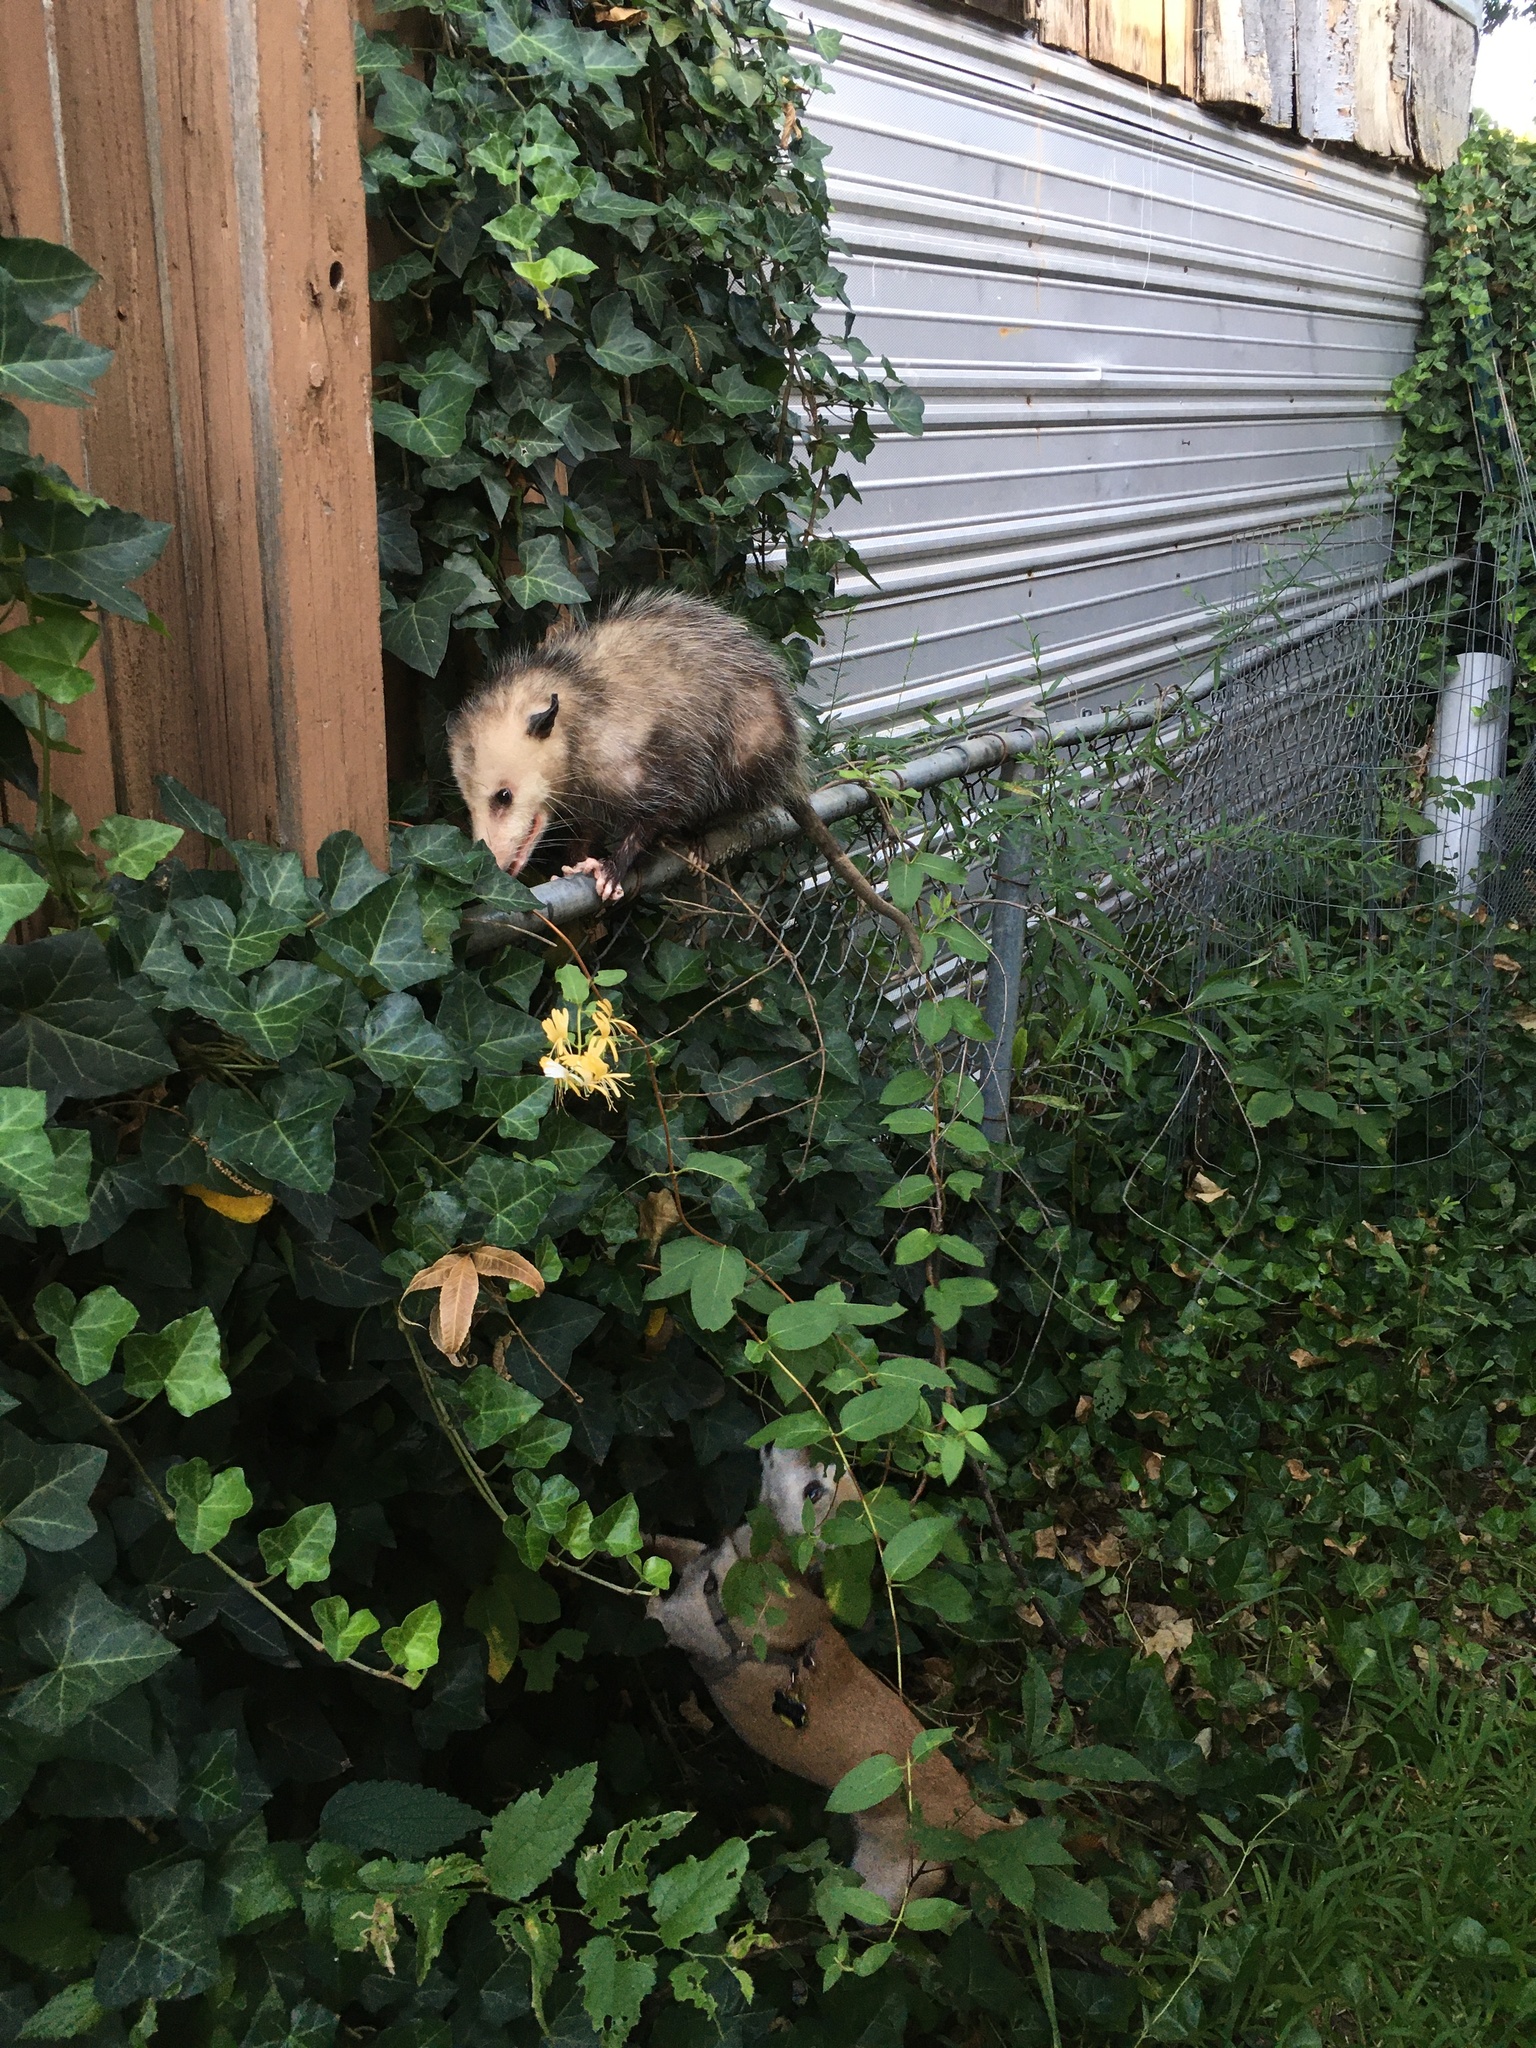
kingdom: Animalia
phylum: Chordata
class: Mammalia
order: Didelphimorphia
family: Didelphidae
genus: Didelphis
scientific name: Didelphis virginiana
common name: Virginia opossum
